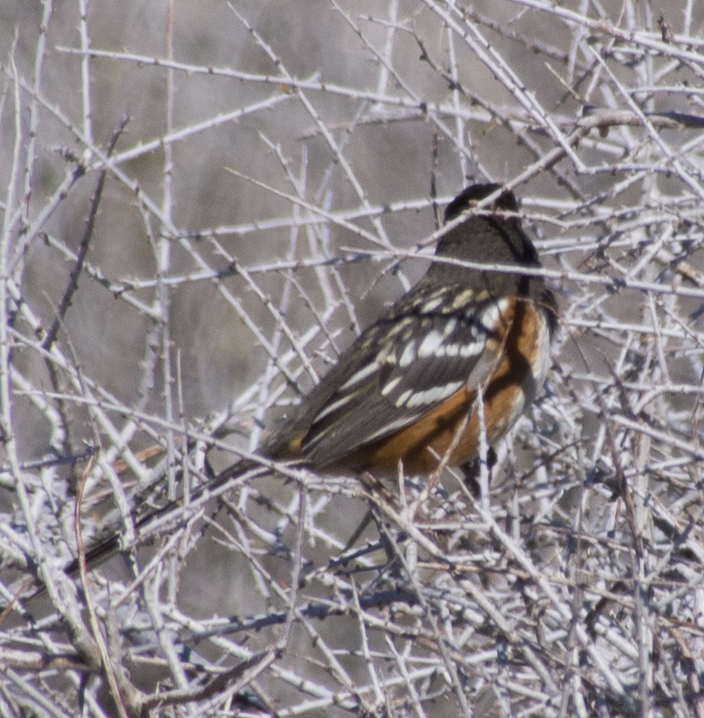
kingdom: Animalia
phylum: Chordata
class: Aves
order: Passeriformes
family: Passerellidae
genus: Pipilo
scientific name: Pipilo maculatus
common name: Spotted towhee
